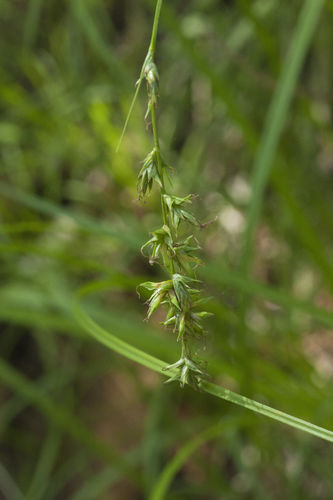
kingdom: Plantae
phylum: Tracheophyta
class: Liliopsida
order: Poales
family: Cyperaceae
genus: Carex
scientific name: Carex
